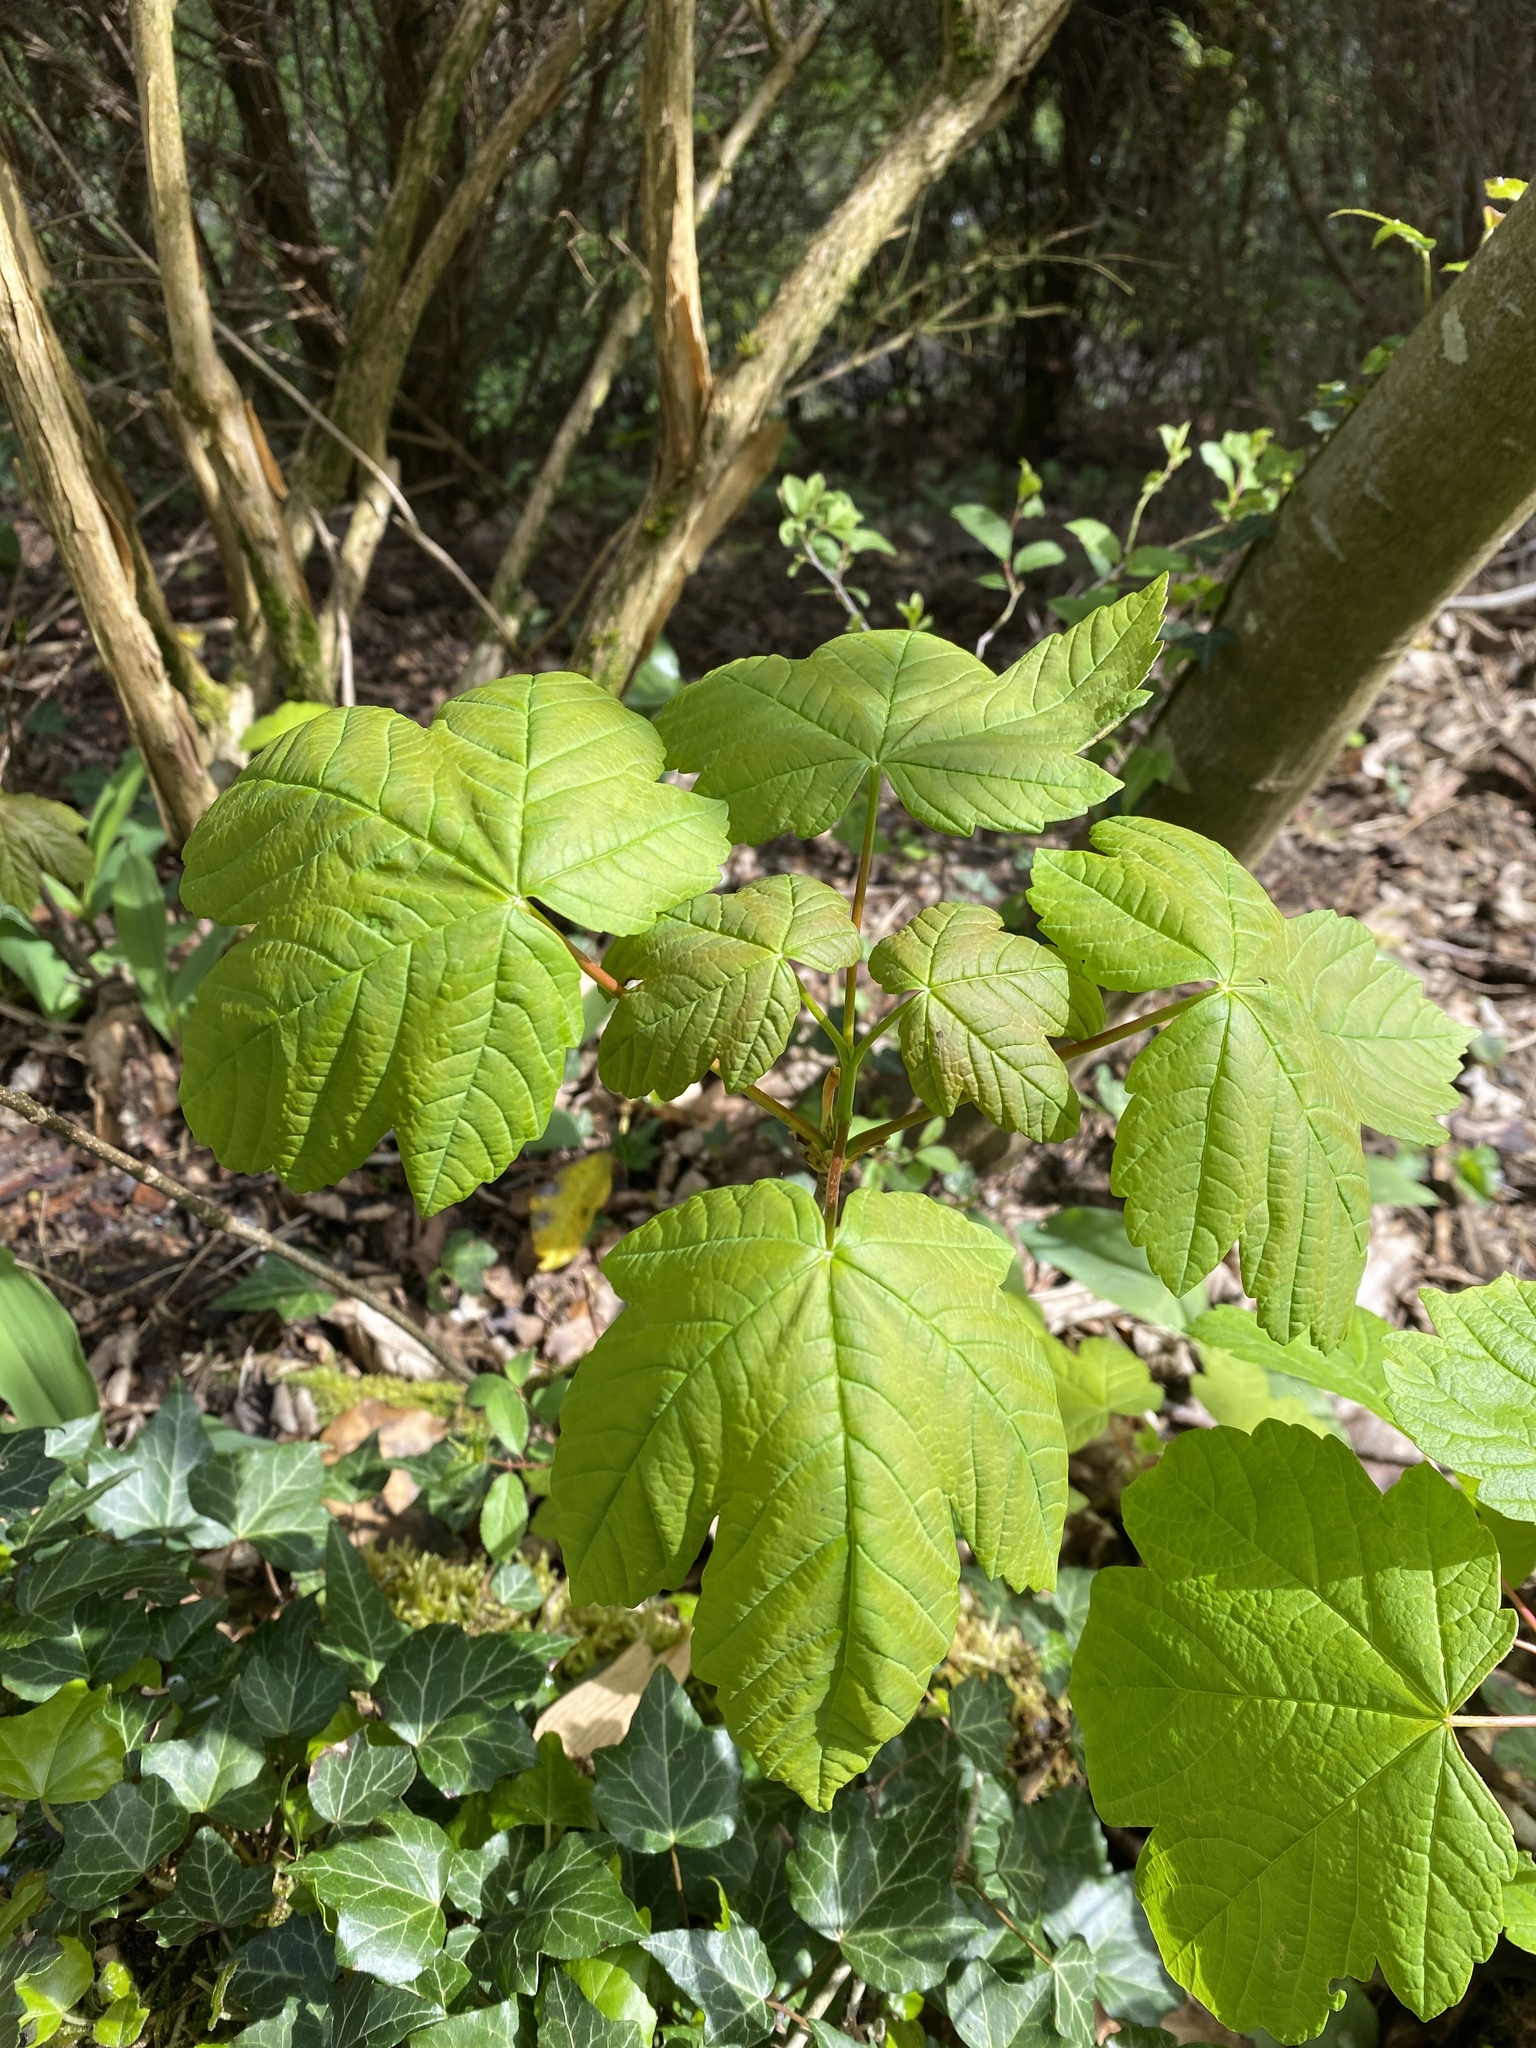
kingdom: Plantae
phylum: Tracheophyta
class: Magnoliopsida
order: Sapindales
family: Sapindaceae
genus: Acer
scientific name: Acer pseudoplatanus
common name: Sycamore
